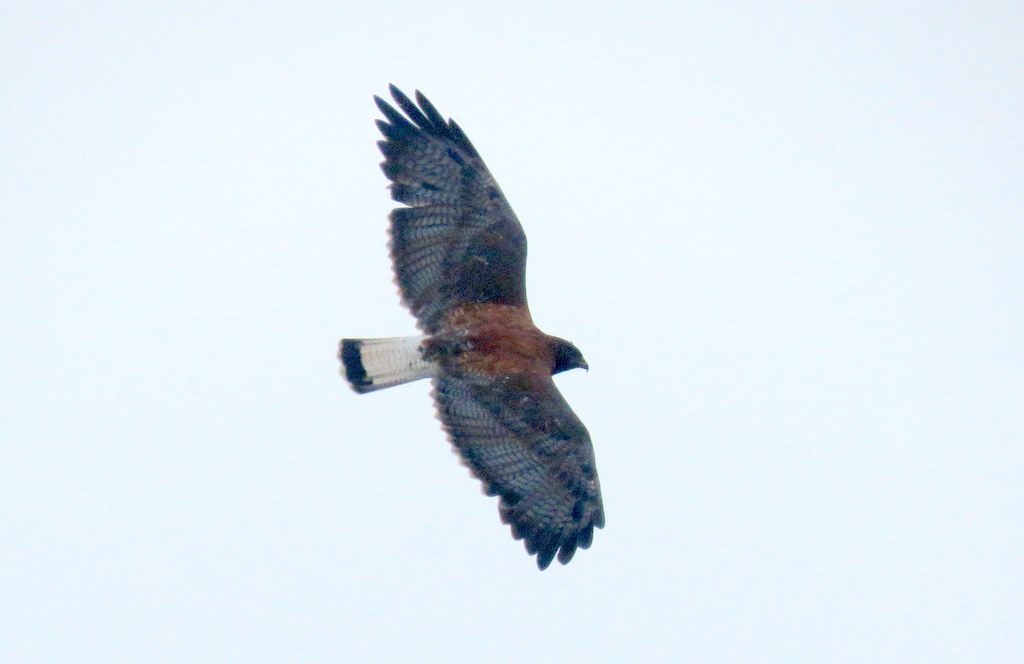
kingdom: Animalia
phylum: Chordata
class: Aves
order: Accipitriformes
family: Accipitridae
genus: Buteo
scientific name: Buteo polyosoma
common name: Variable hawk
